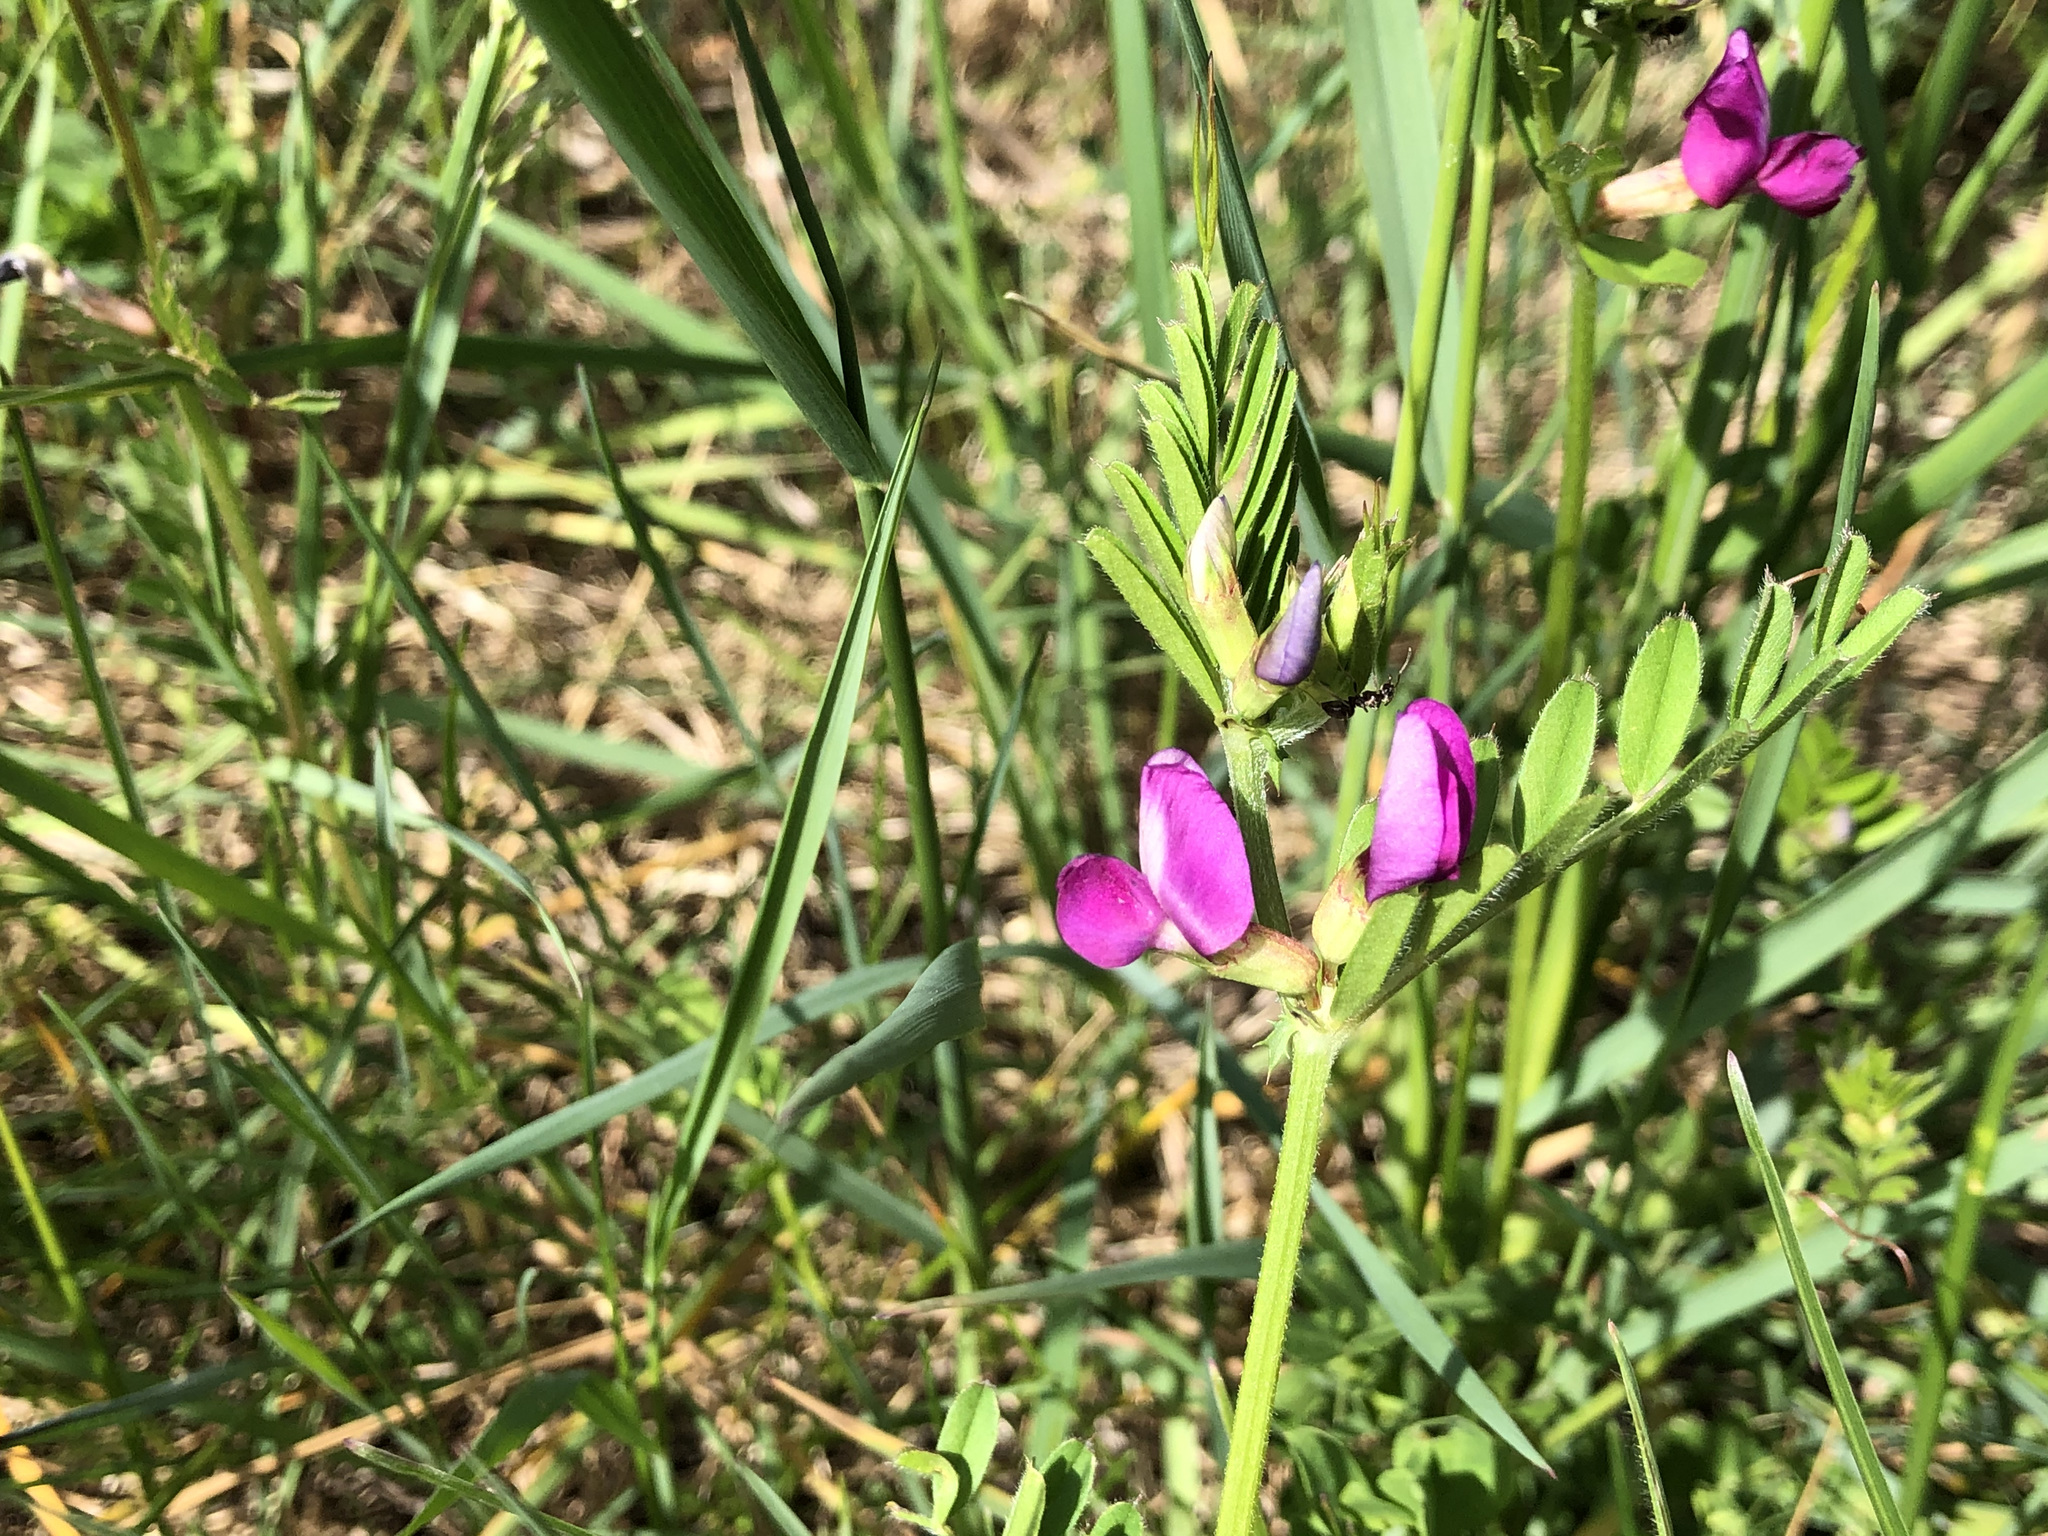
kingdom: Plantae
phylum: Tracheophyta
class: Magnoliopsida
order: Fabales
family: Fabaceae
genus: Vicia
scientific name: Vicia sativa
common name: Garden vetch
